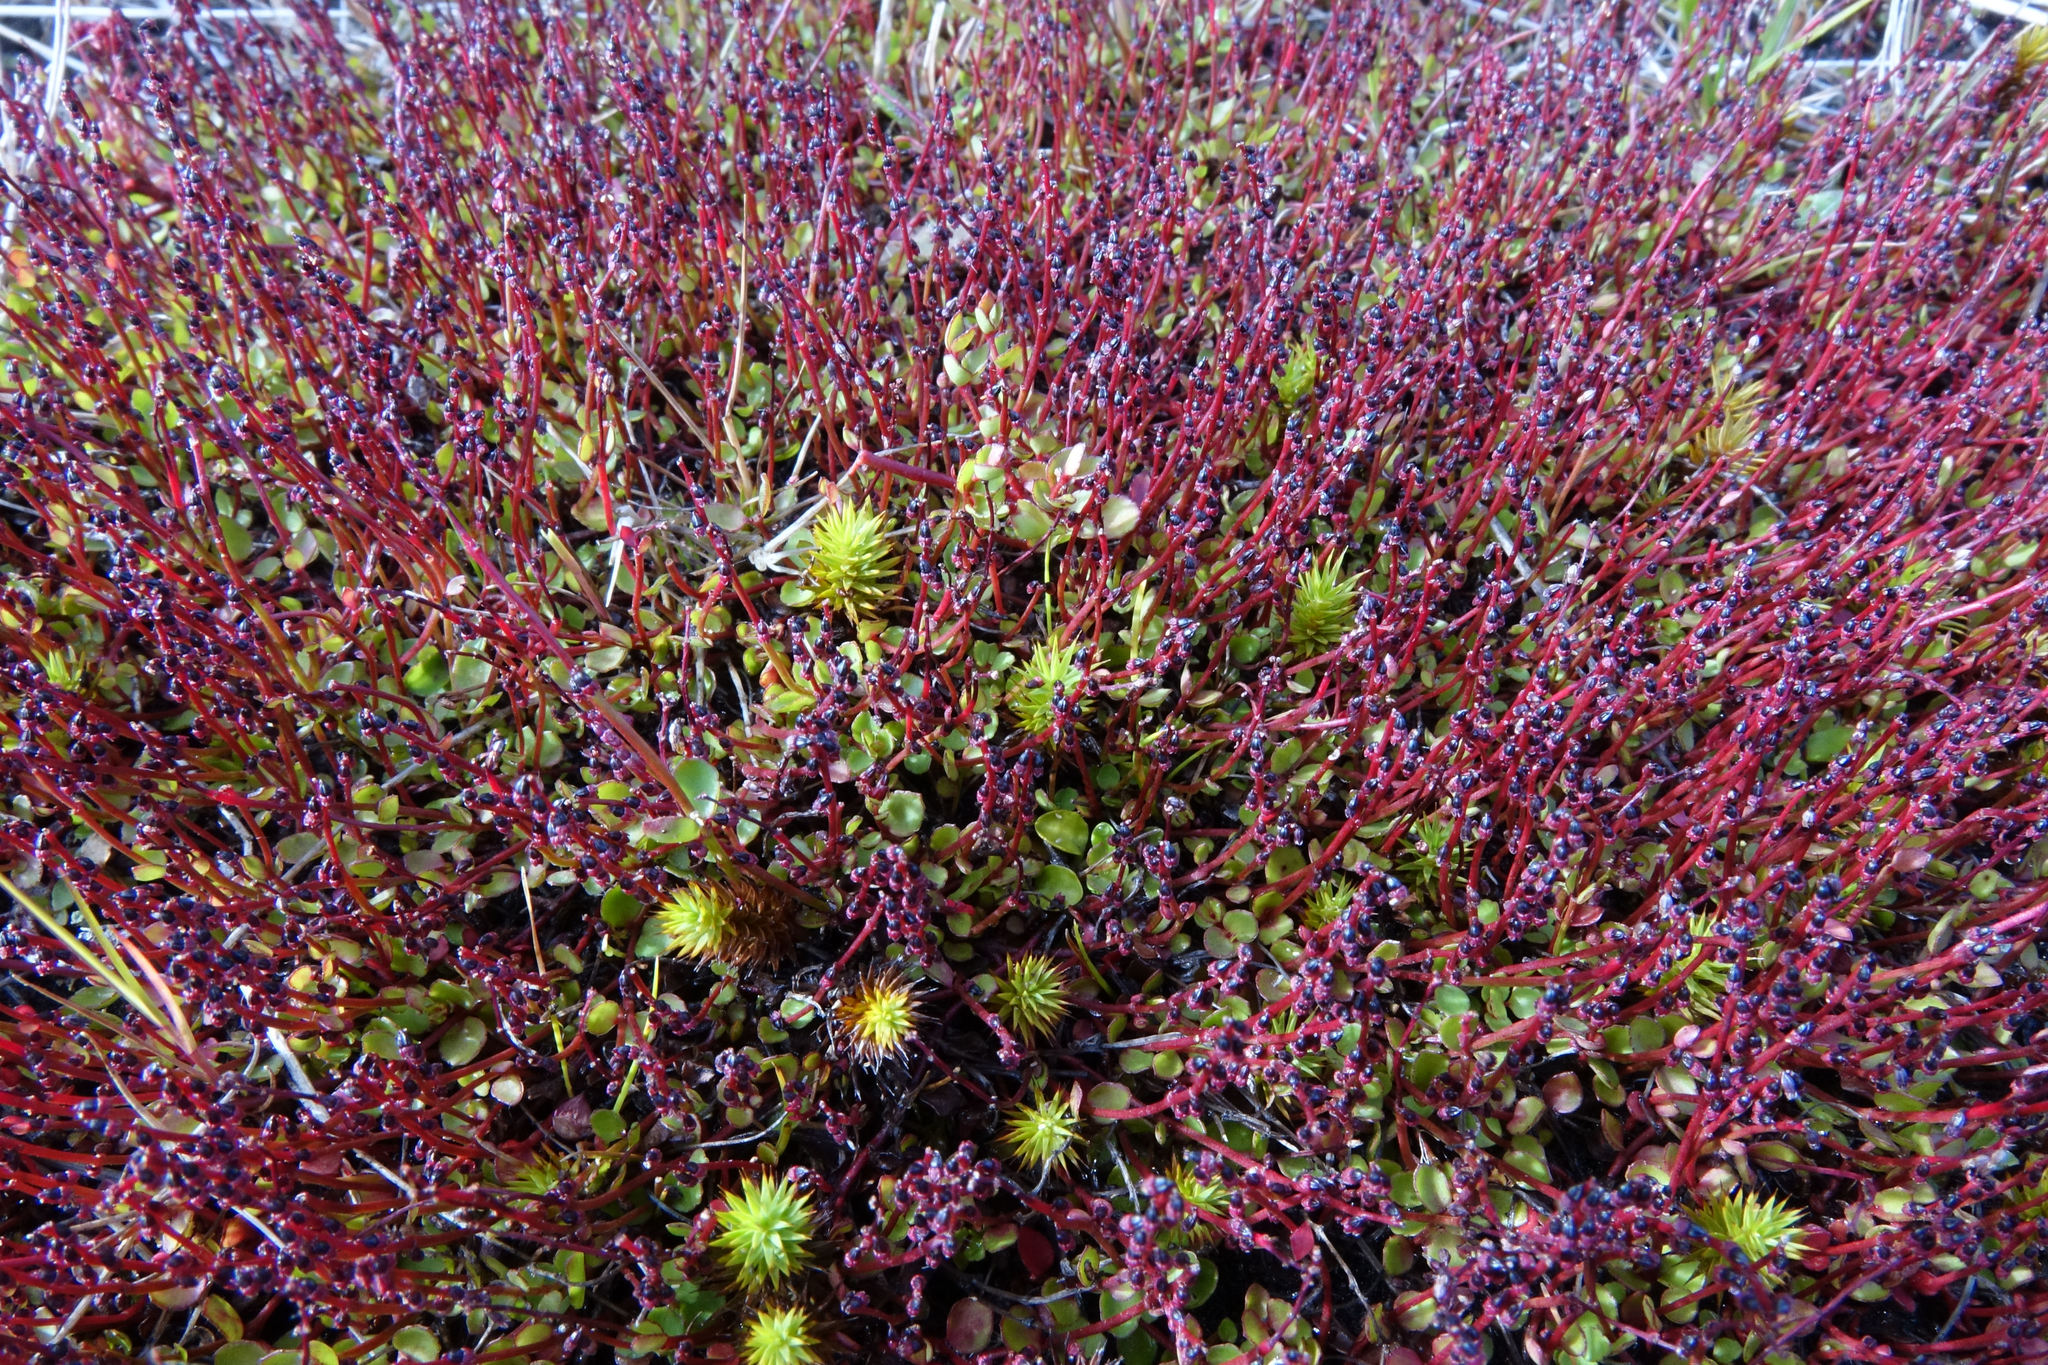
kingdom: Plantae
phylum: Tracheophyta
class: Magnoliopsida
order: Saxifragales
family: Haloragaceae
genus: Gonocarpus
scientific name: Gonocarpus micranthus
